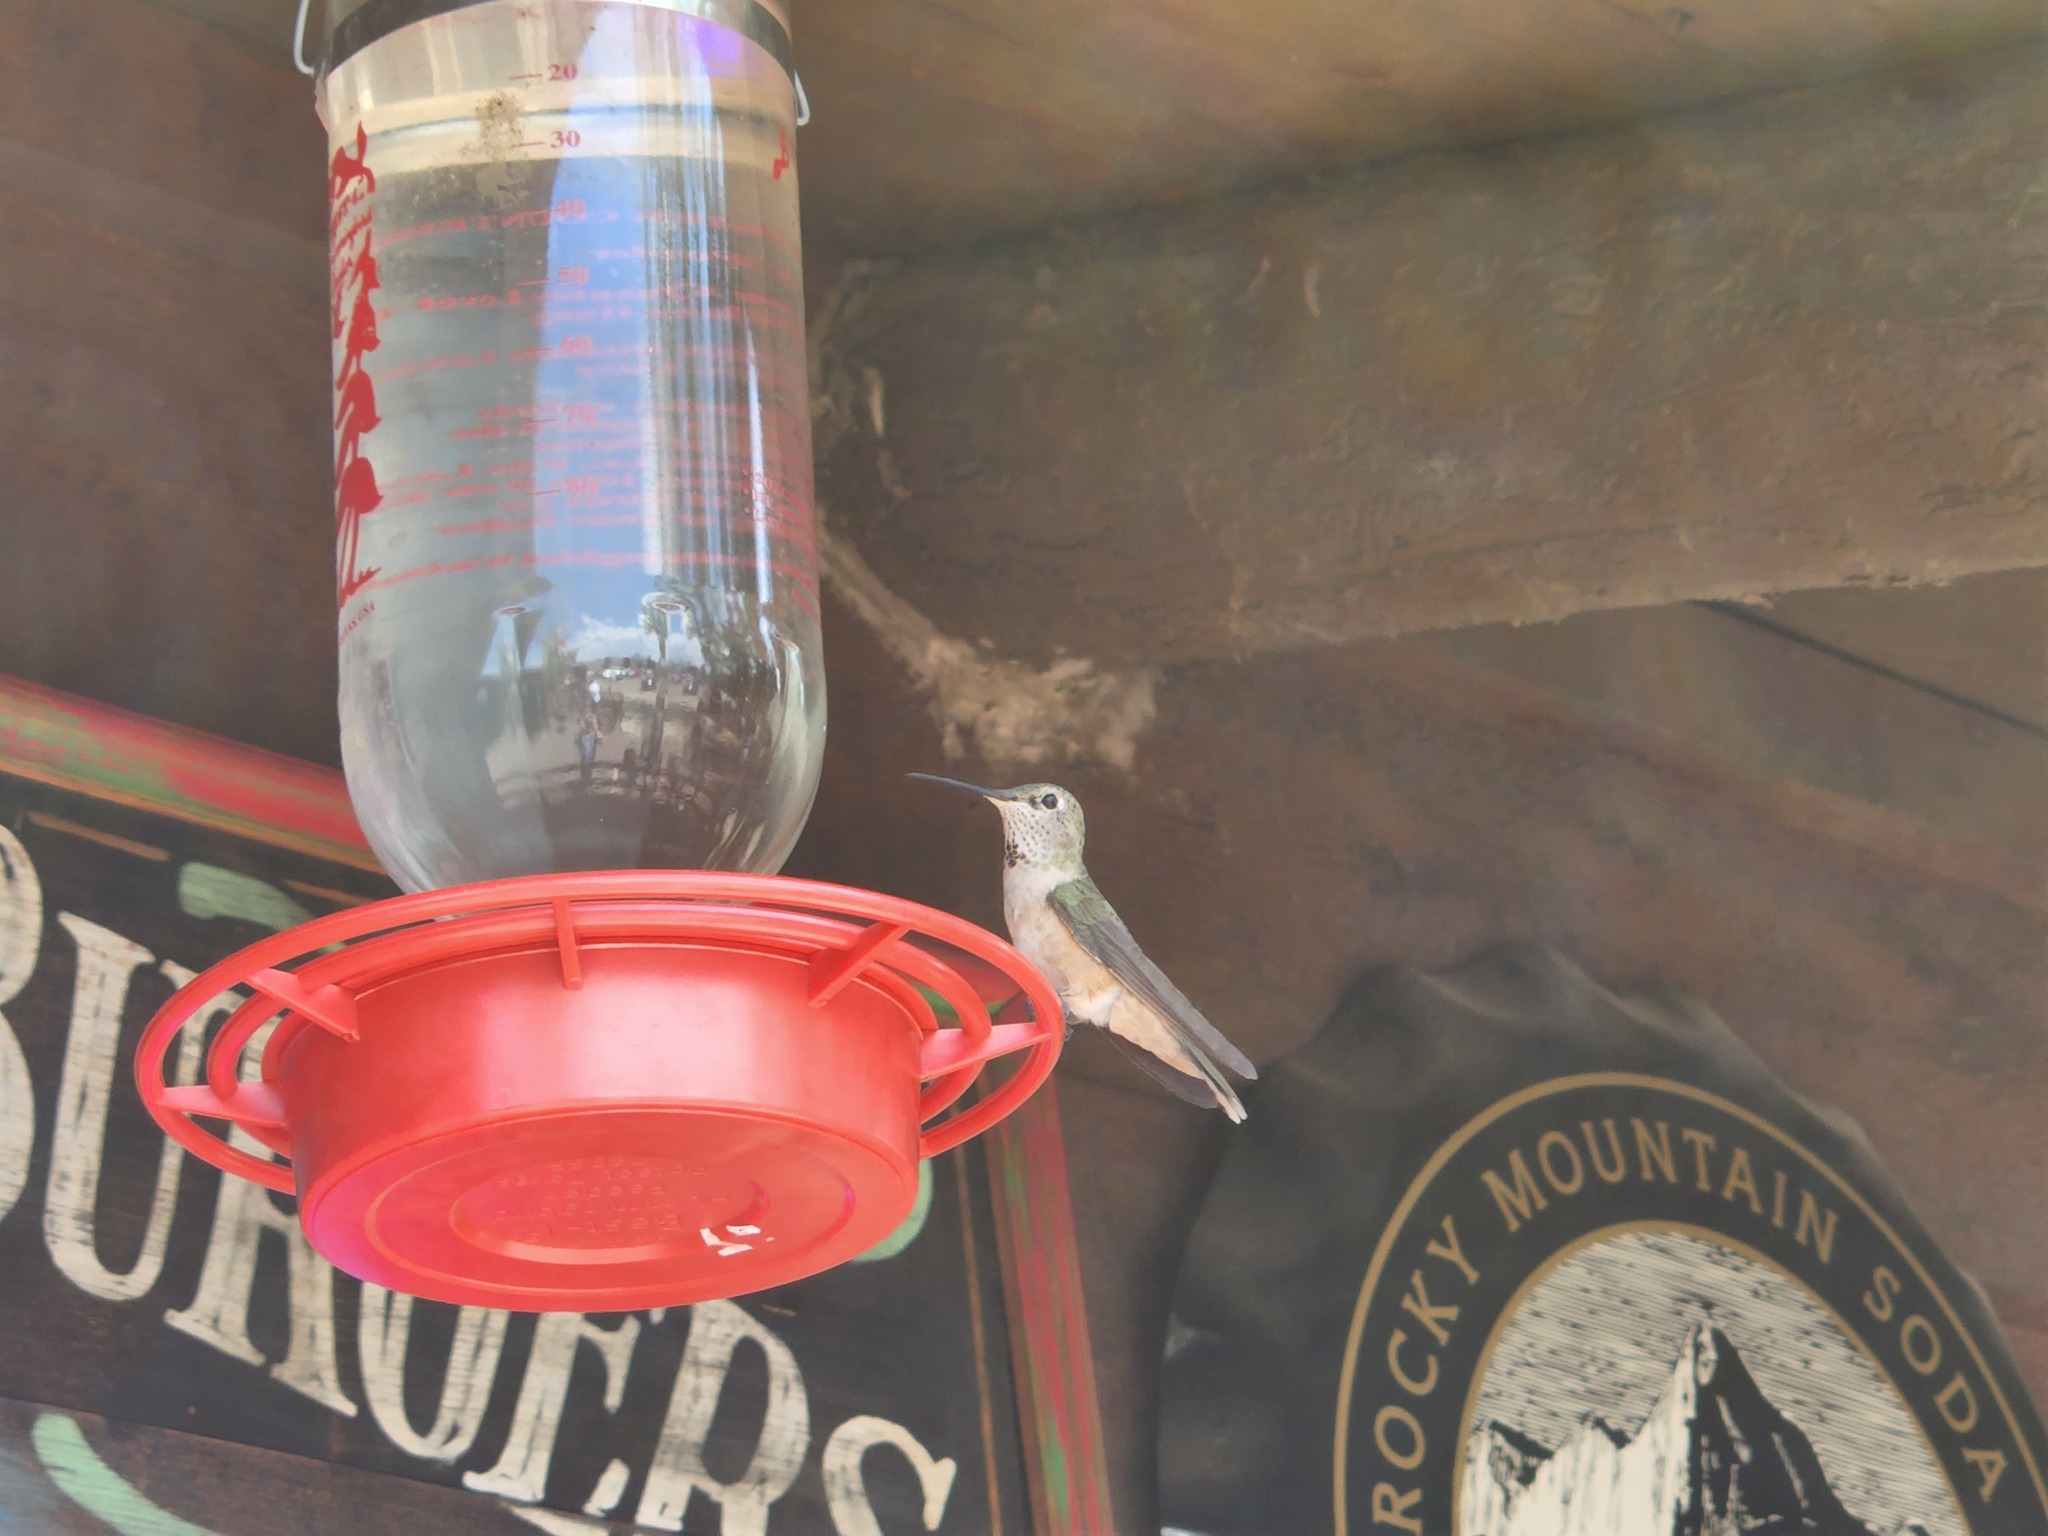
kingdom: Animalia
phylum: Chordata
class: Aves
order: Apodiformes
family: Trochilidae
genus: Selasphorus
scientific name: Selasphorus platycercus
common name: Broad-tailed hummingbird
